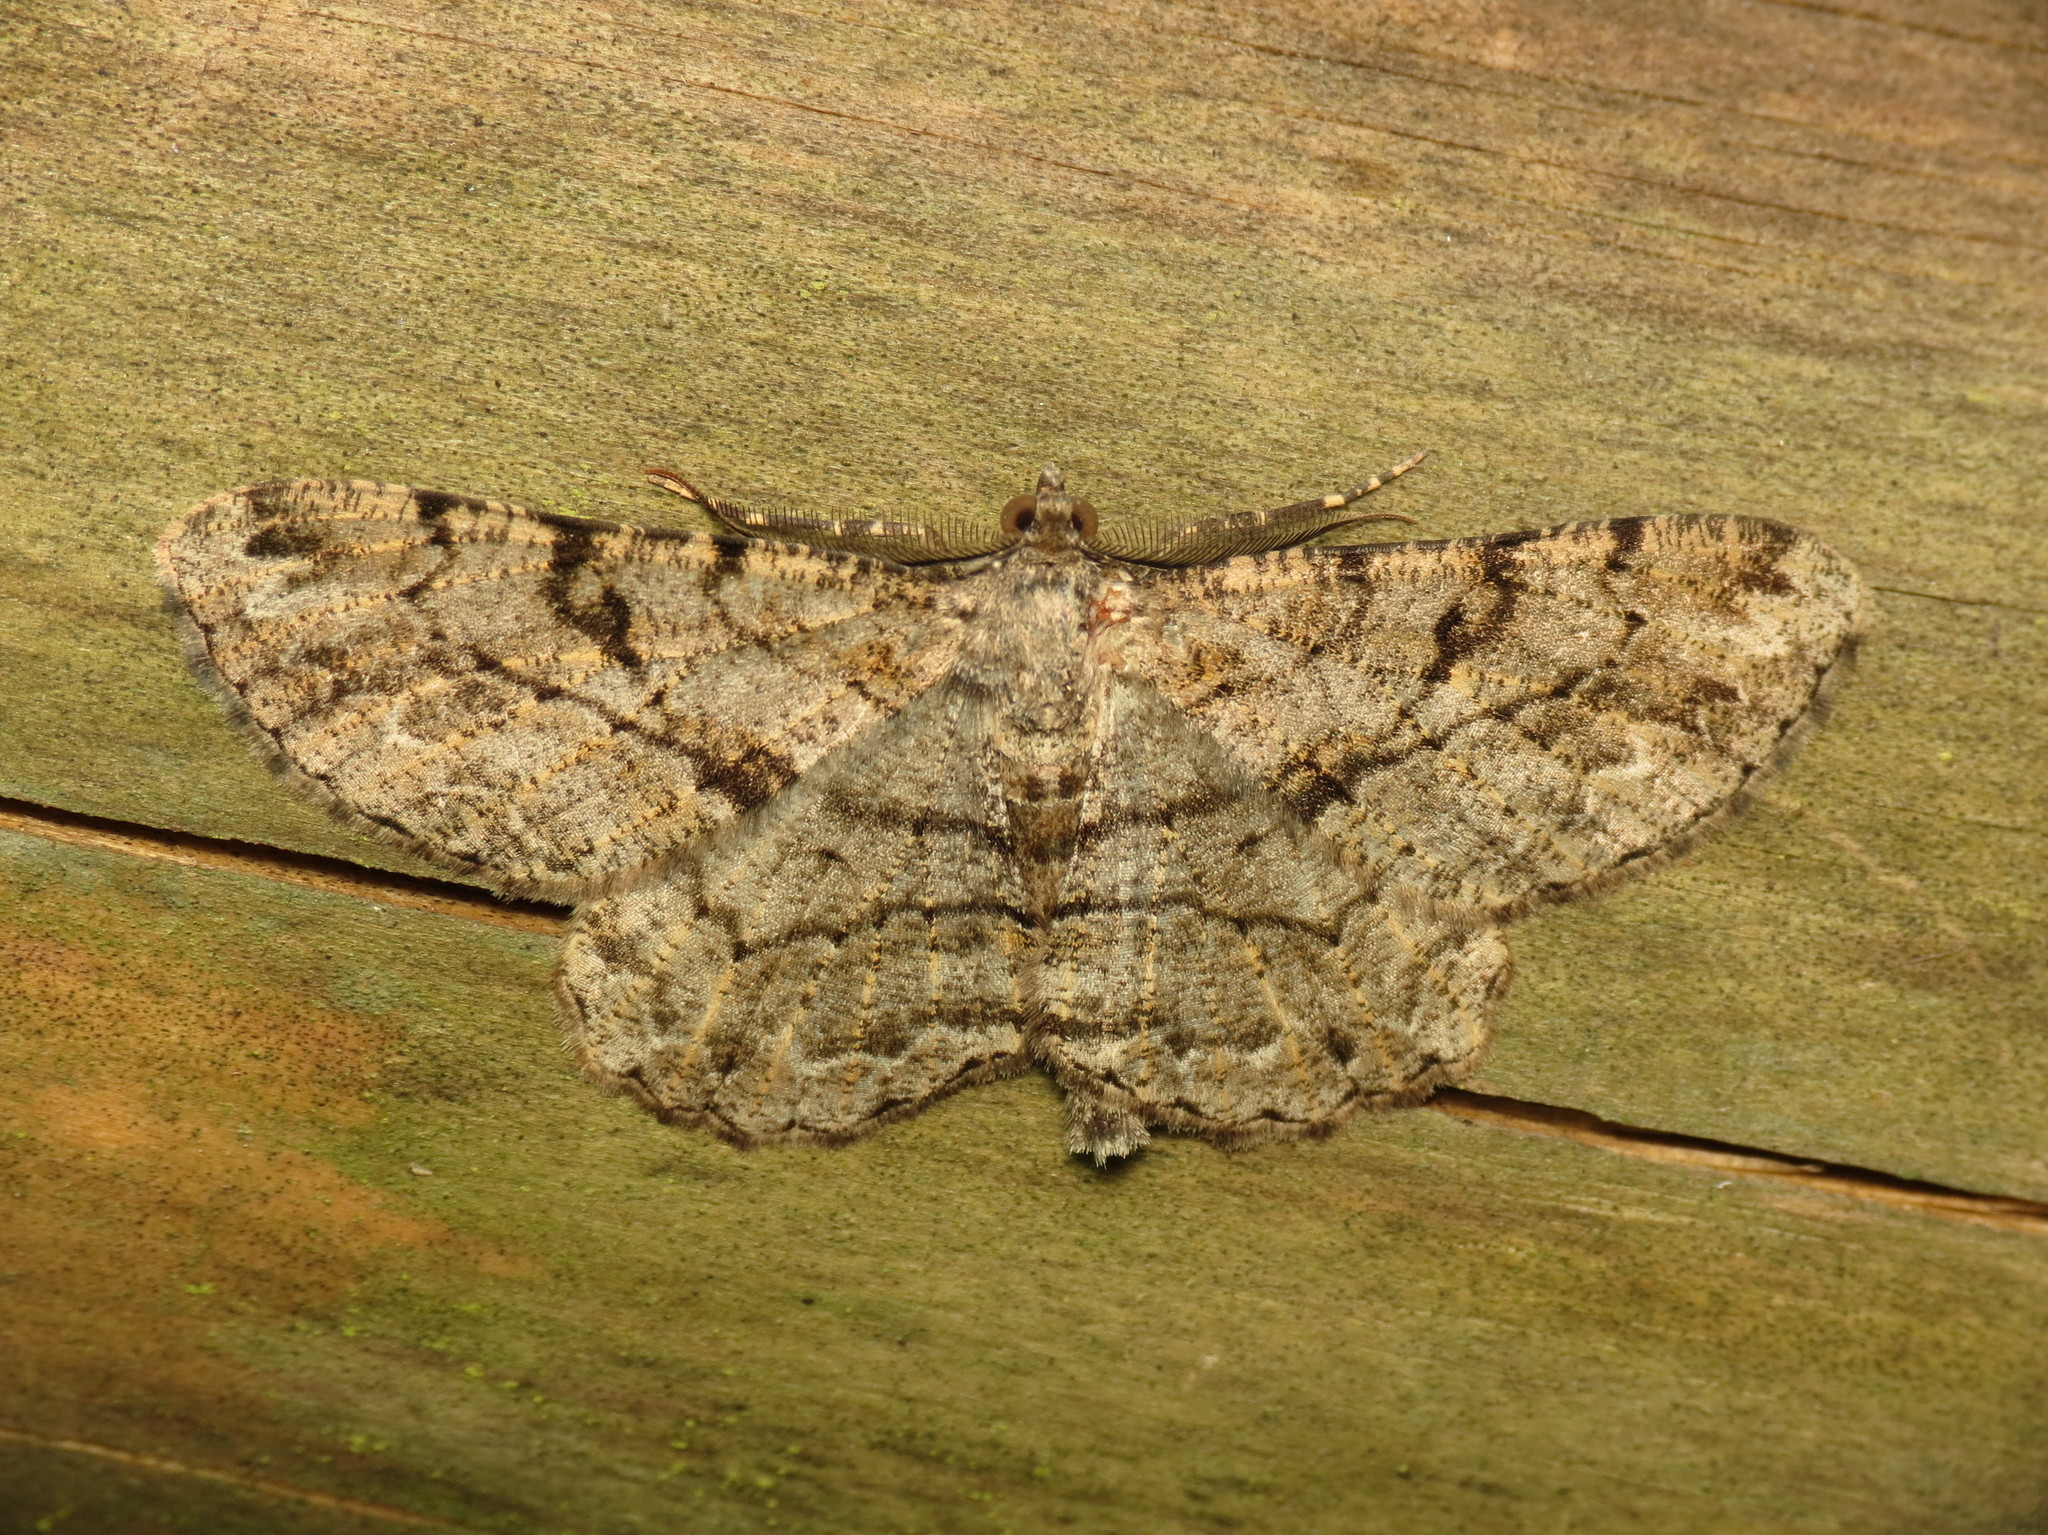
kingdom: Animalia
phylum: Arthropoda
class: Insecta
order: Lepidoptera
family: Geometridae
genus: Peribatodes
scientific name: Peribatodes rhomboidaria
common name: Willow beauty
